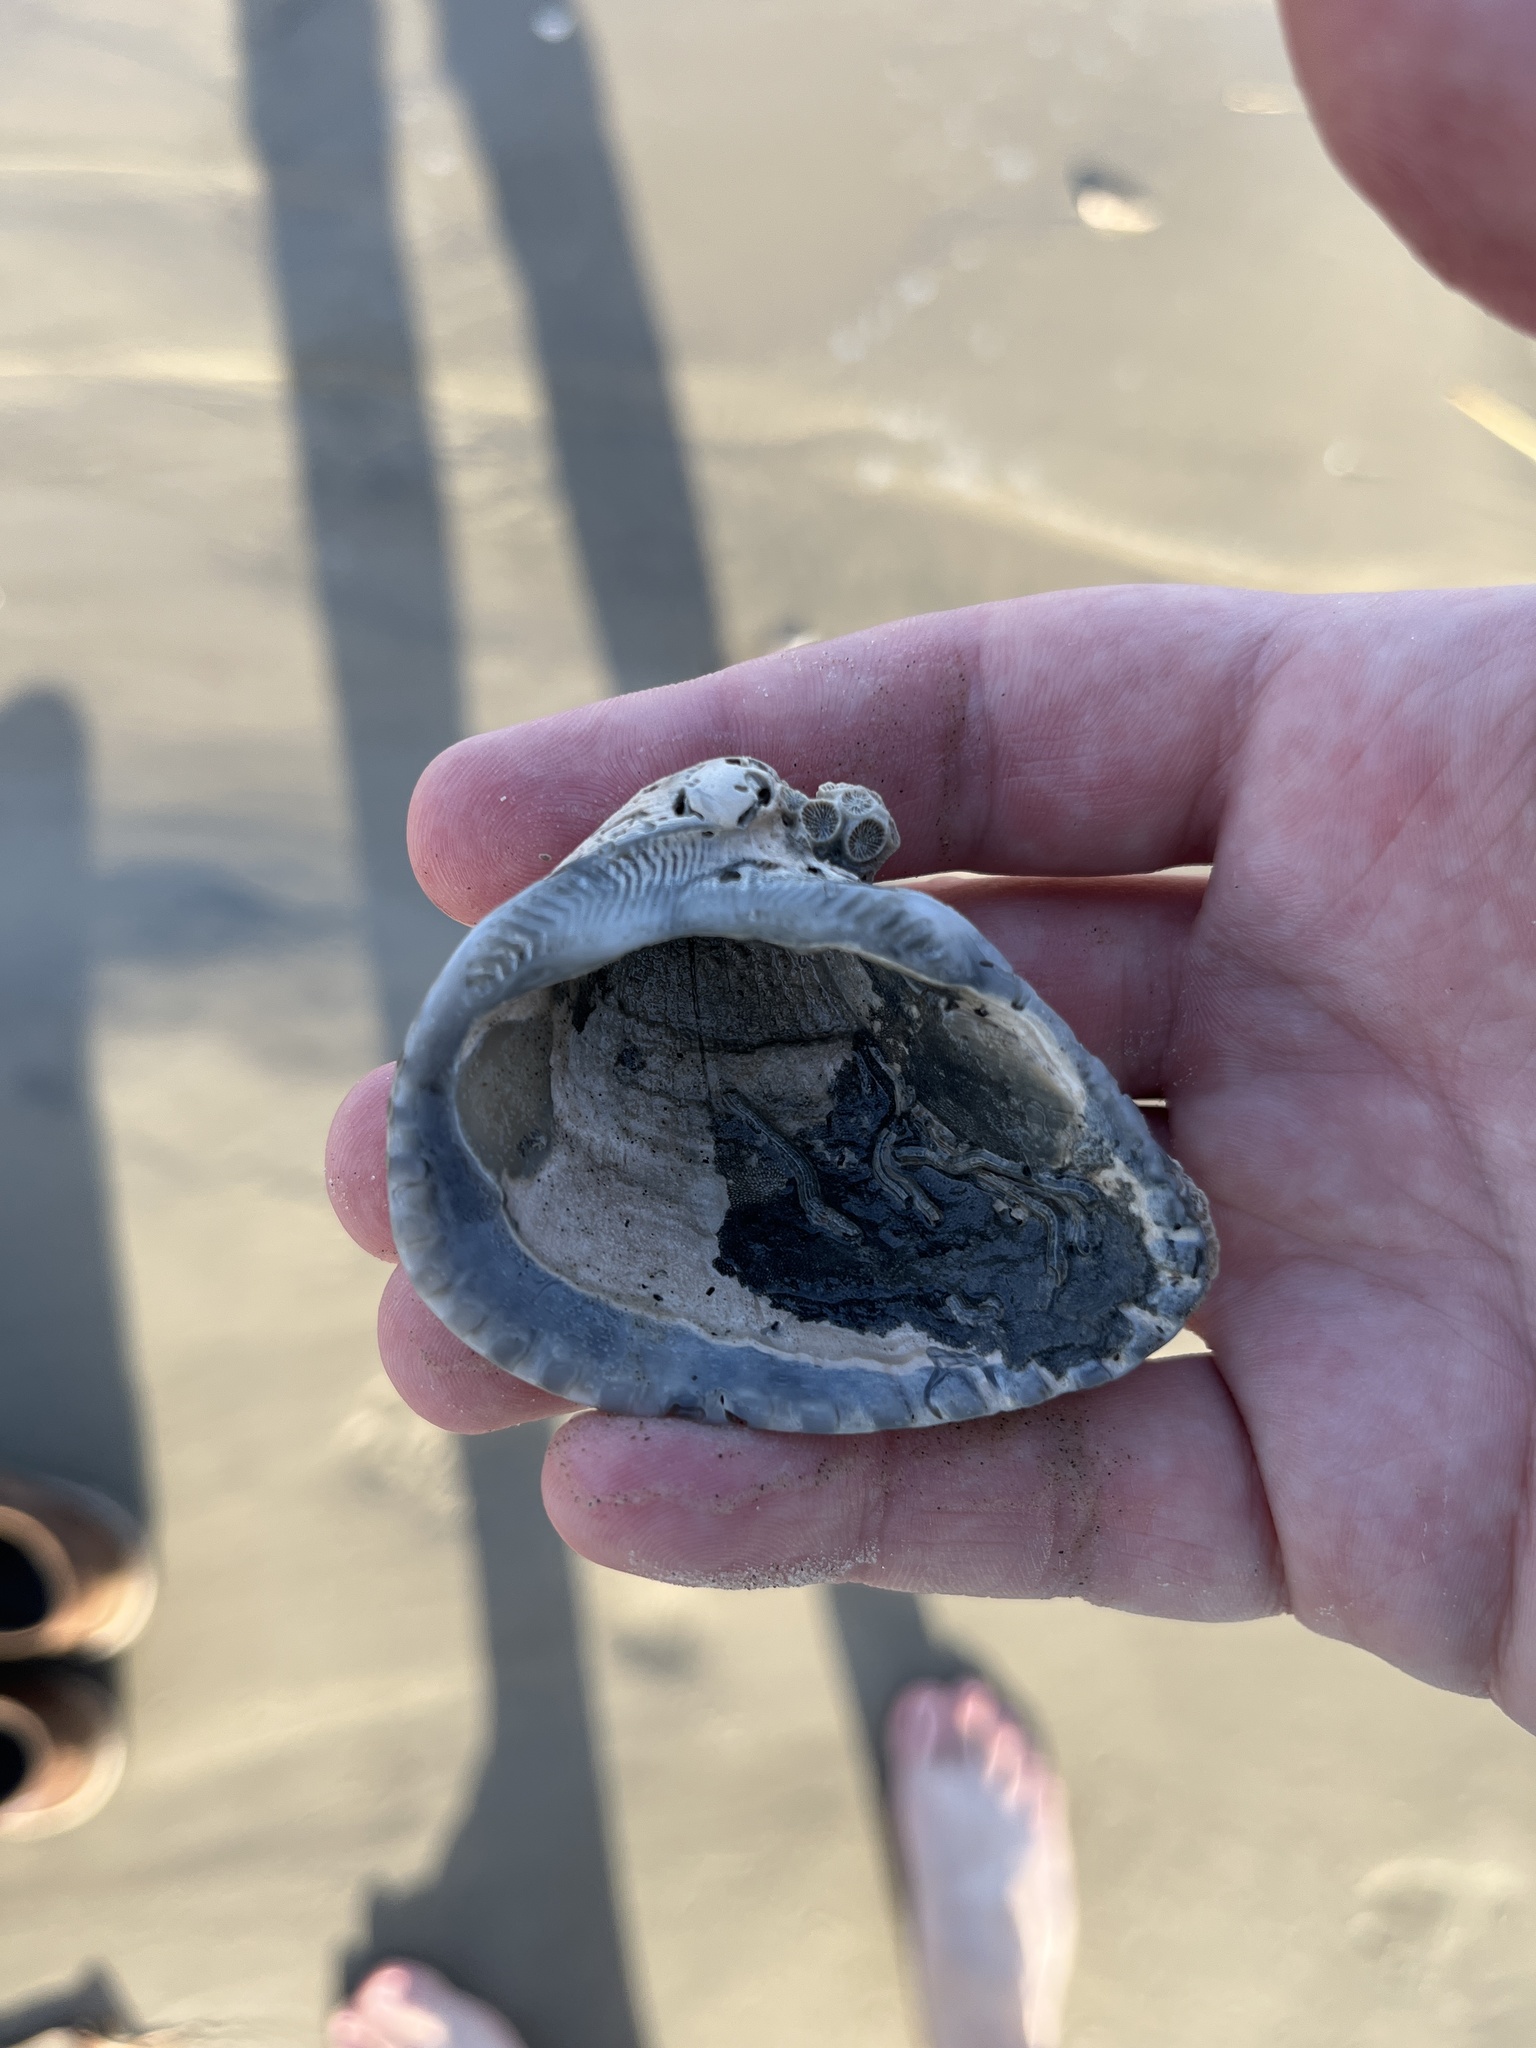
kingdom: Animalia
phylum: Mollusca
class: Bivalvia
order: Arcida
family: Noetiidae
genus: Noetia
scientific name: Noetia ponderosa
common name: Ponderous ark
